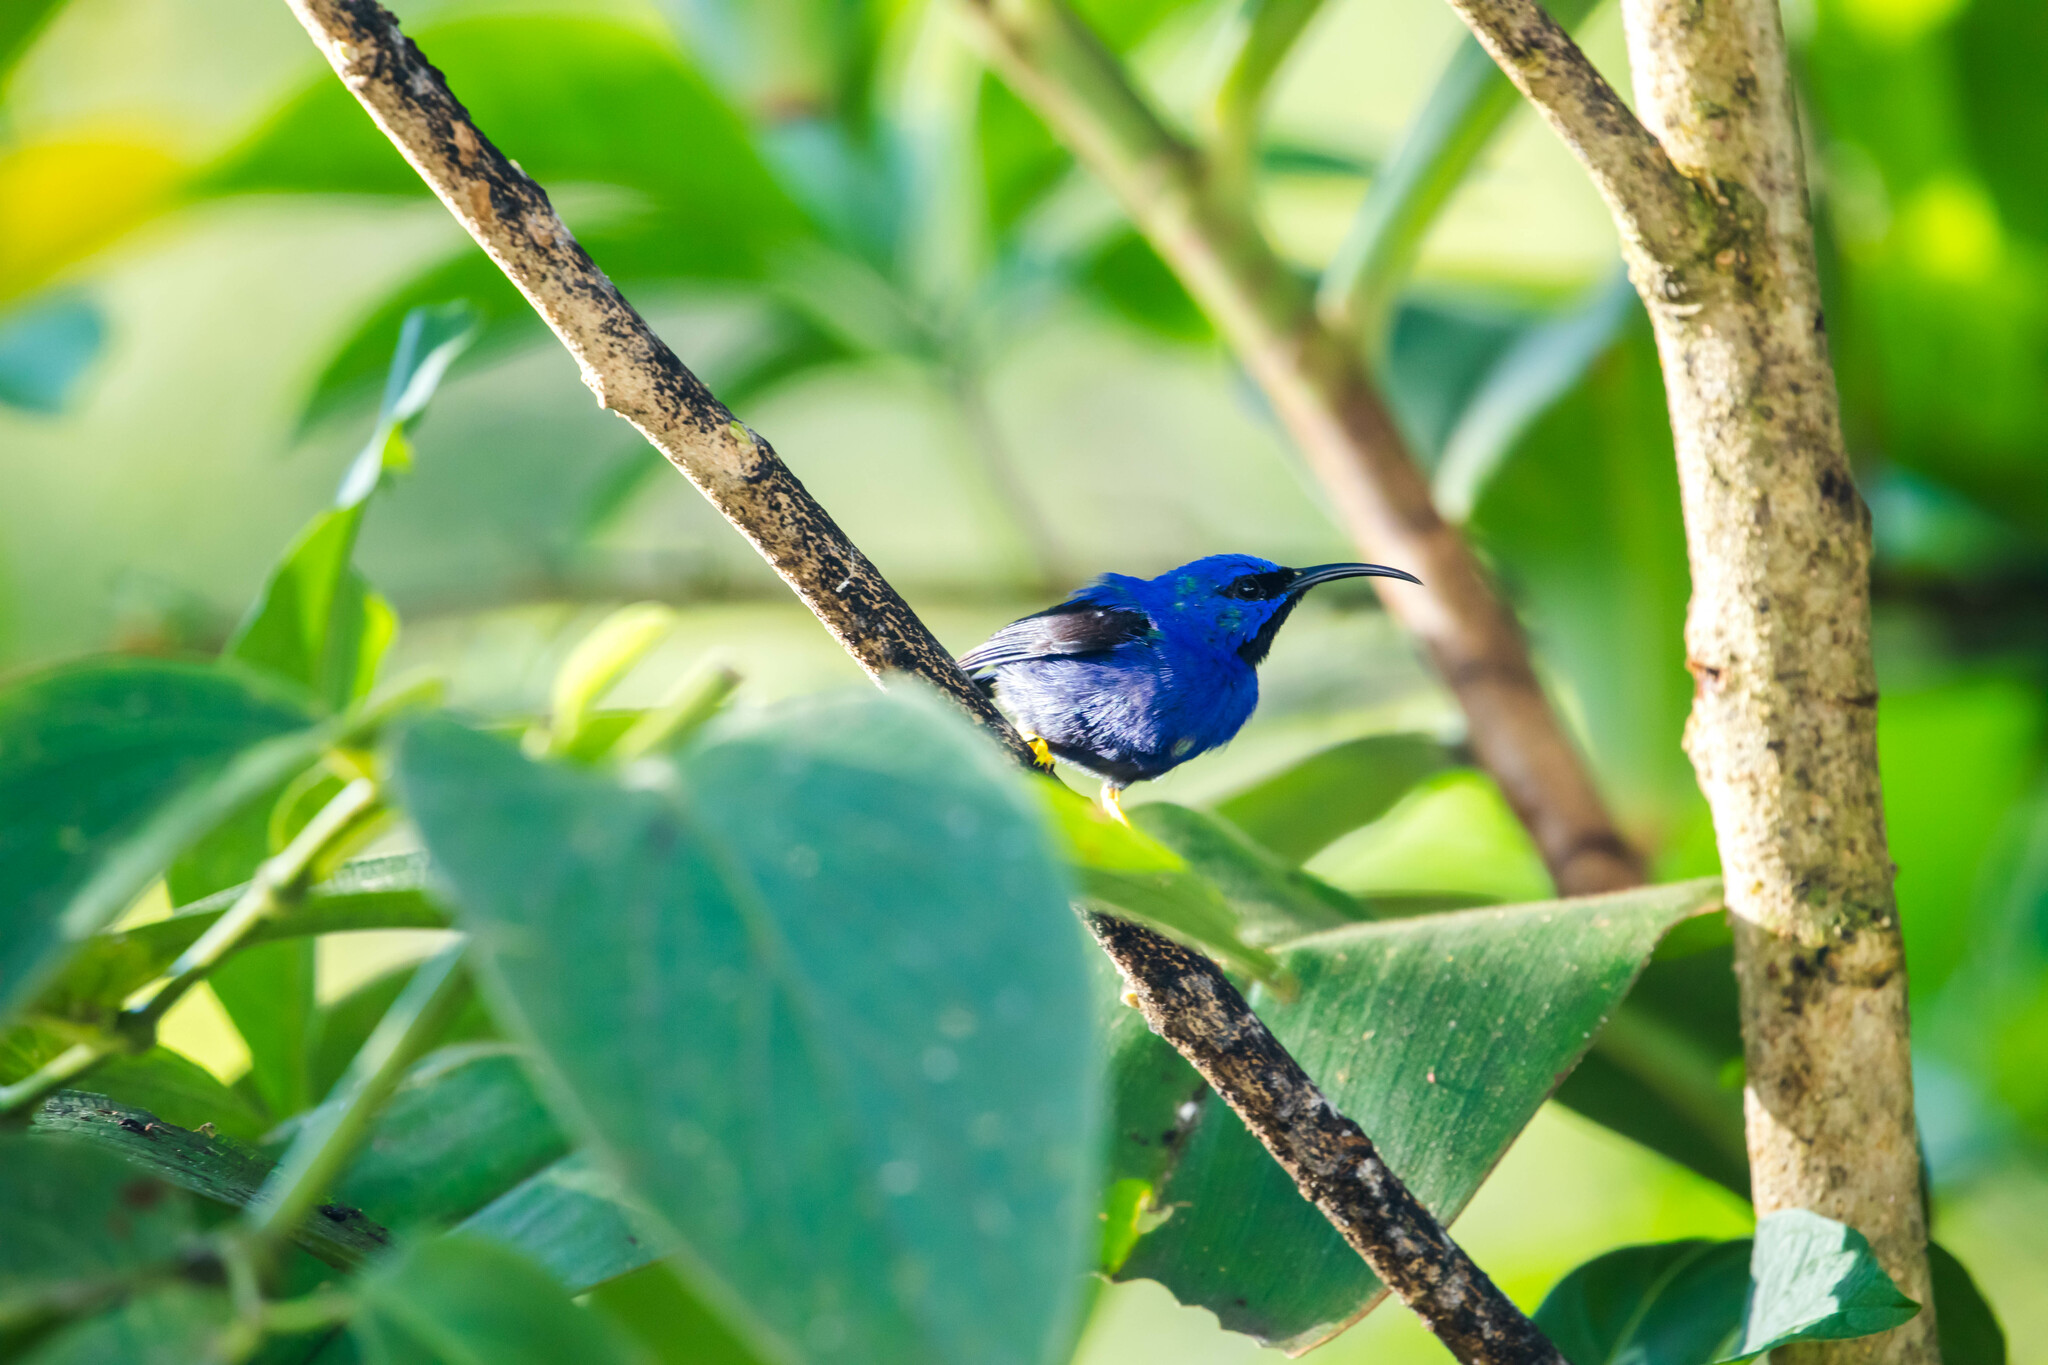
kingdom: Animalia
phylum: Chordata
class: Aves
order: Passeriformes
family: Thraupidae
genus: Cyanerpes
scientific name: Cyanerpes caeruleus
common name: Purple honeycreeper
